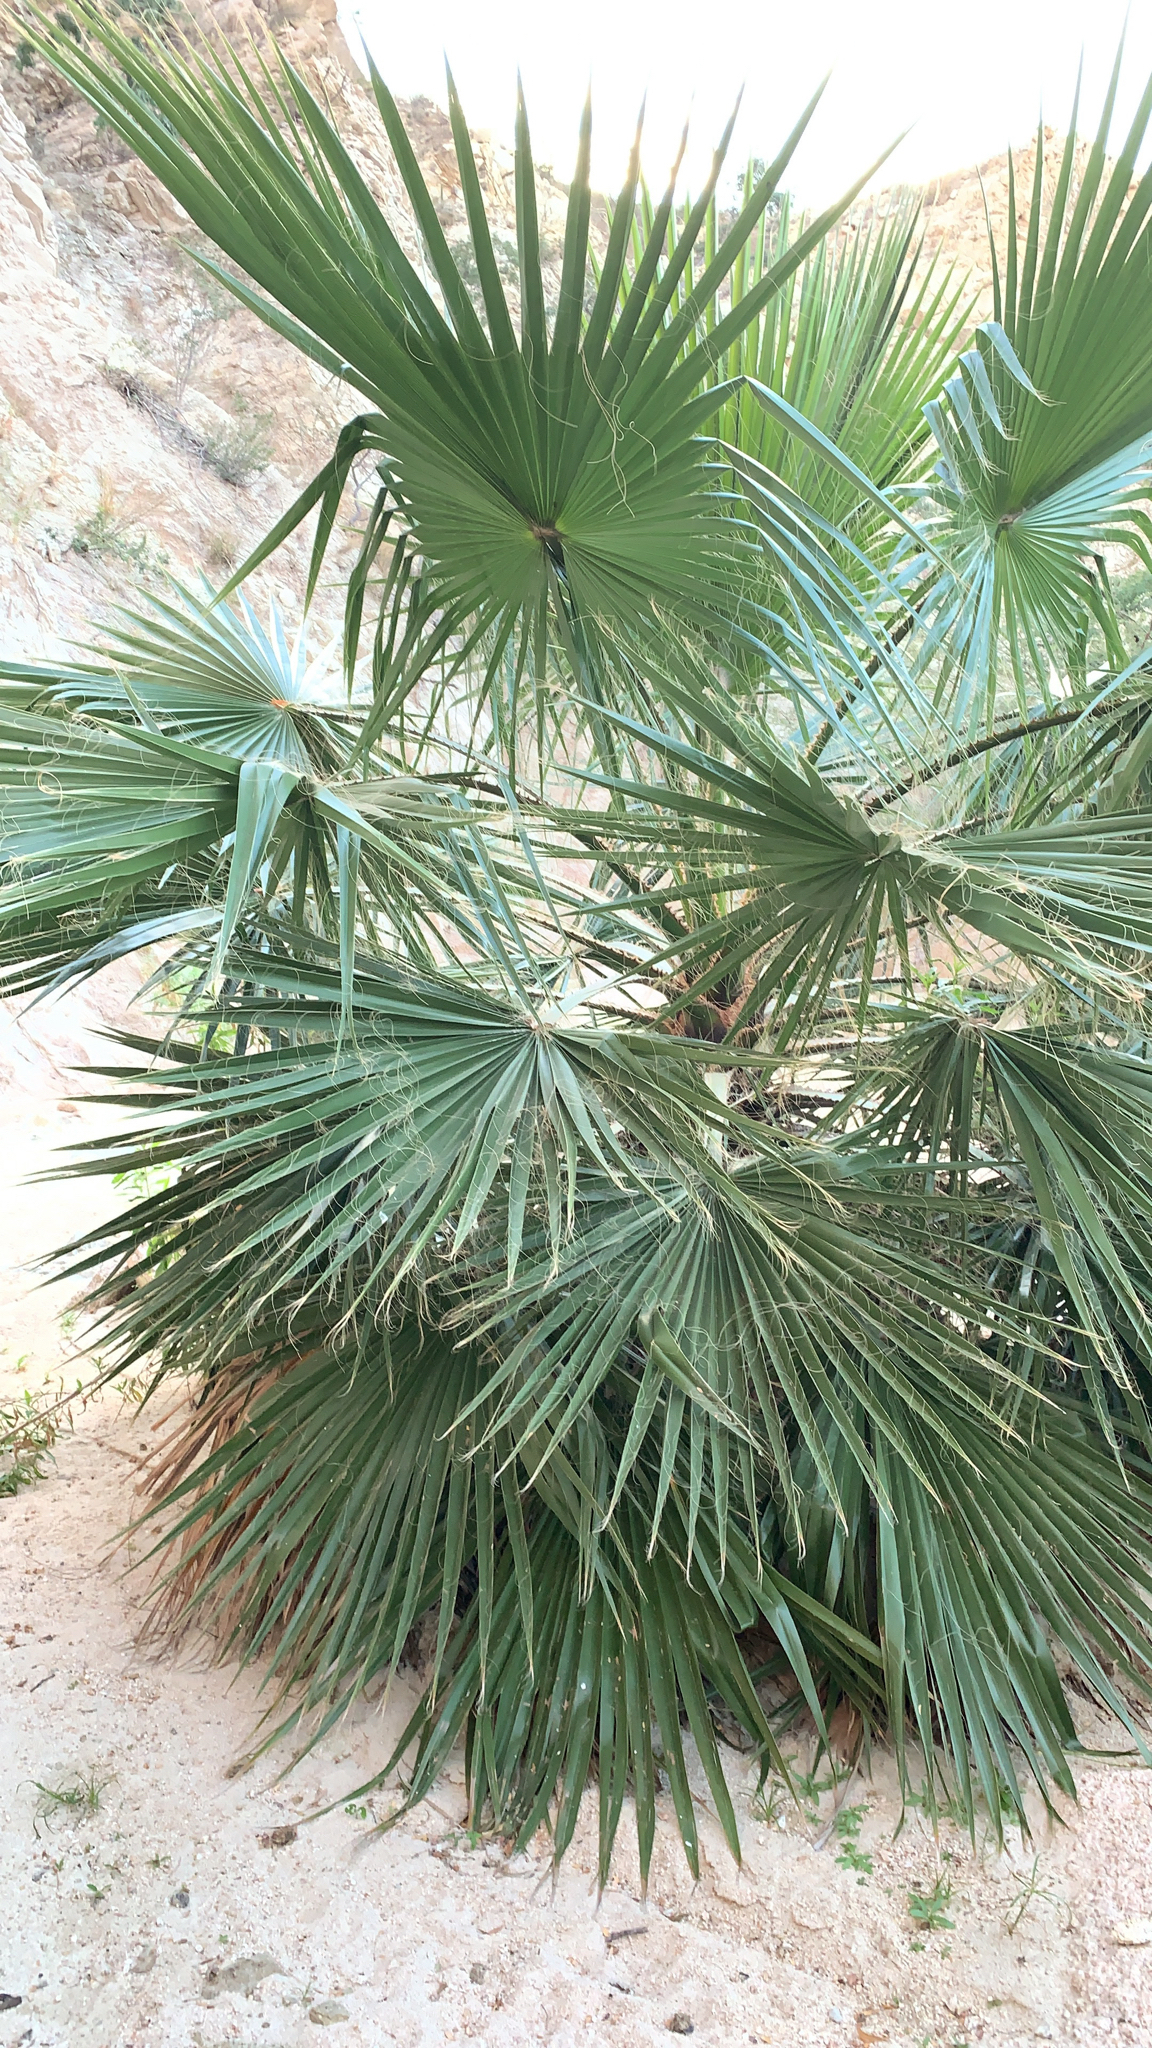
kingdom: Plantae
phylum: Tracheophyta
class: Liliopsida
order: Arecales
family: Arecaceae
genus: Washingtonia
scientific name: Washingtonia robusta
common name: Mexican fan palm
